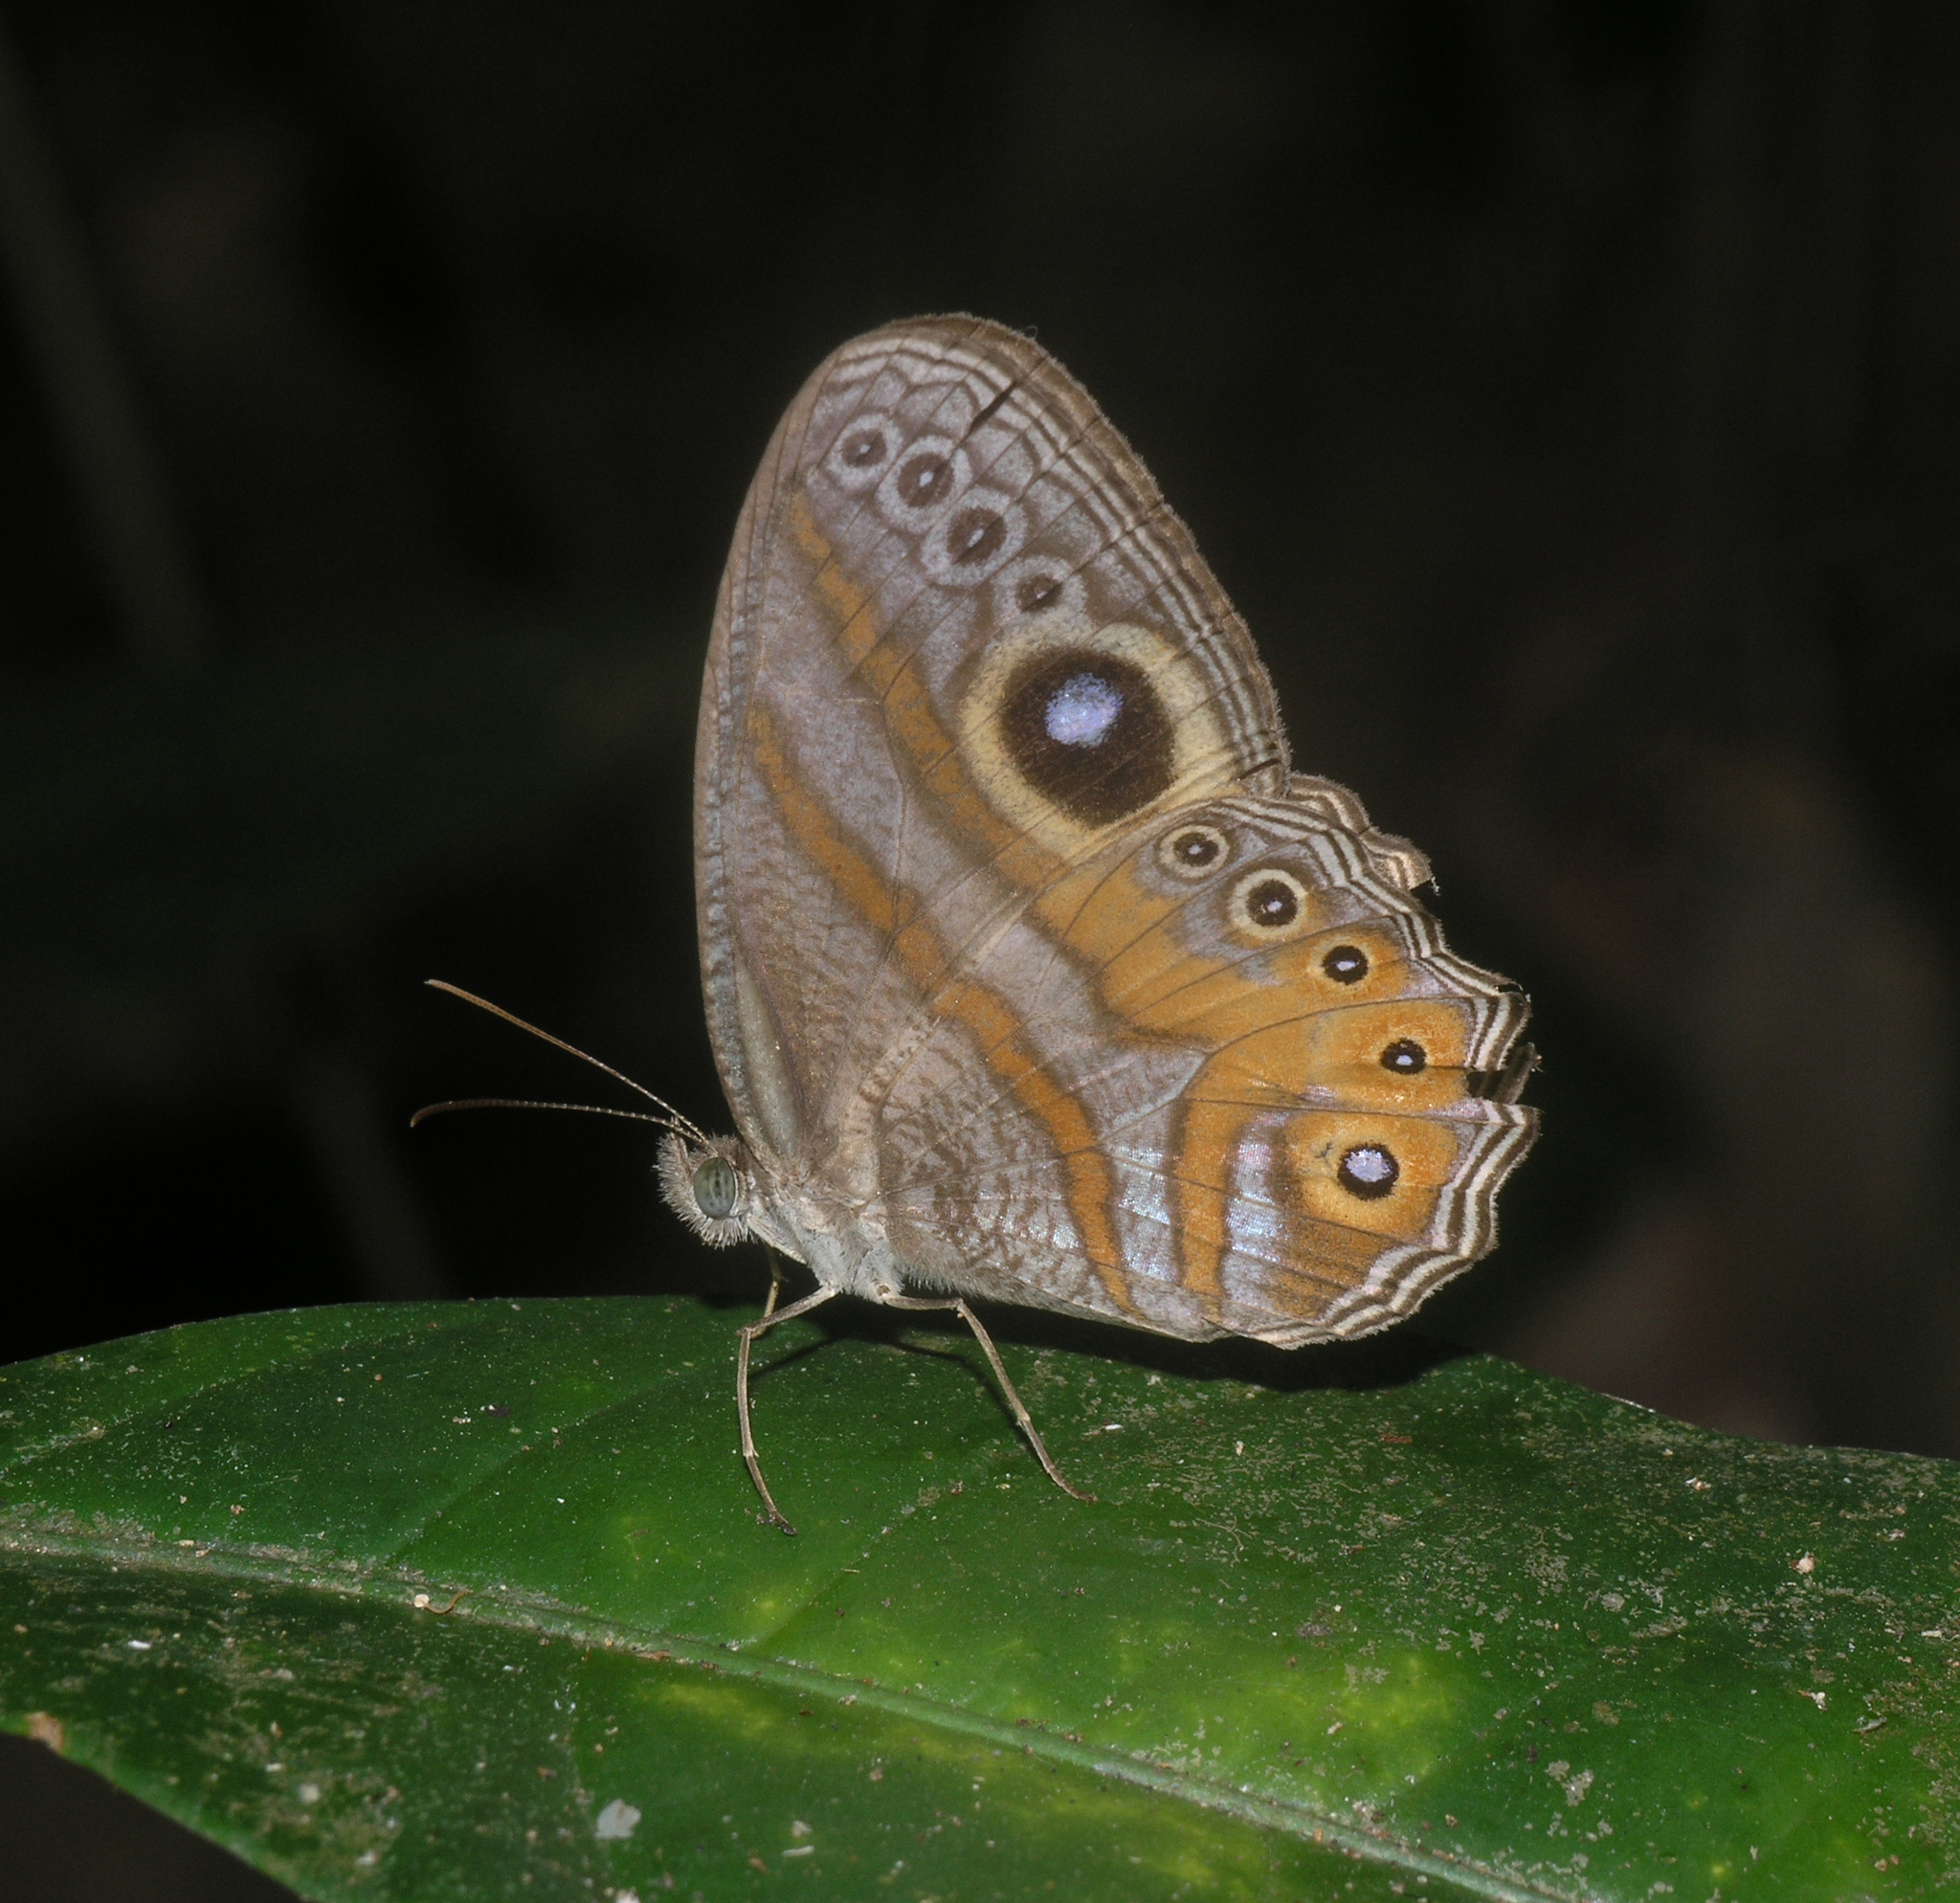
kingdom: Animalia
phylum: Arthropoda
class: Insecta
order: Lepidoptera
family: Nymphalidae
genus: Erites
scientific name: Erites argentina
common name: Eyed cyclops
